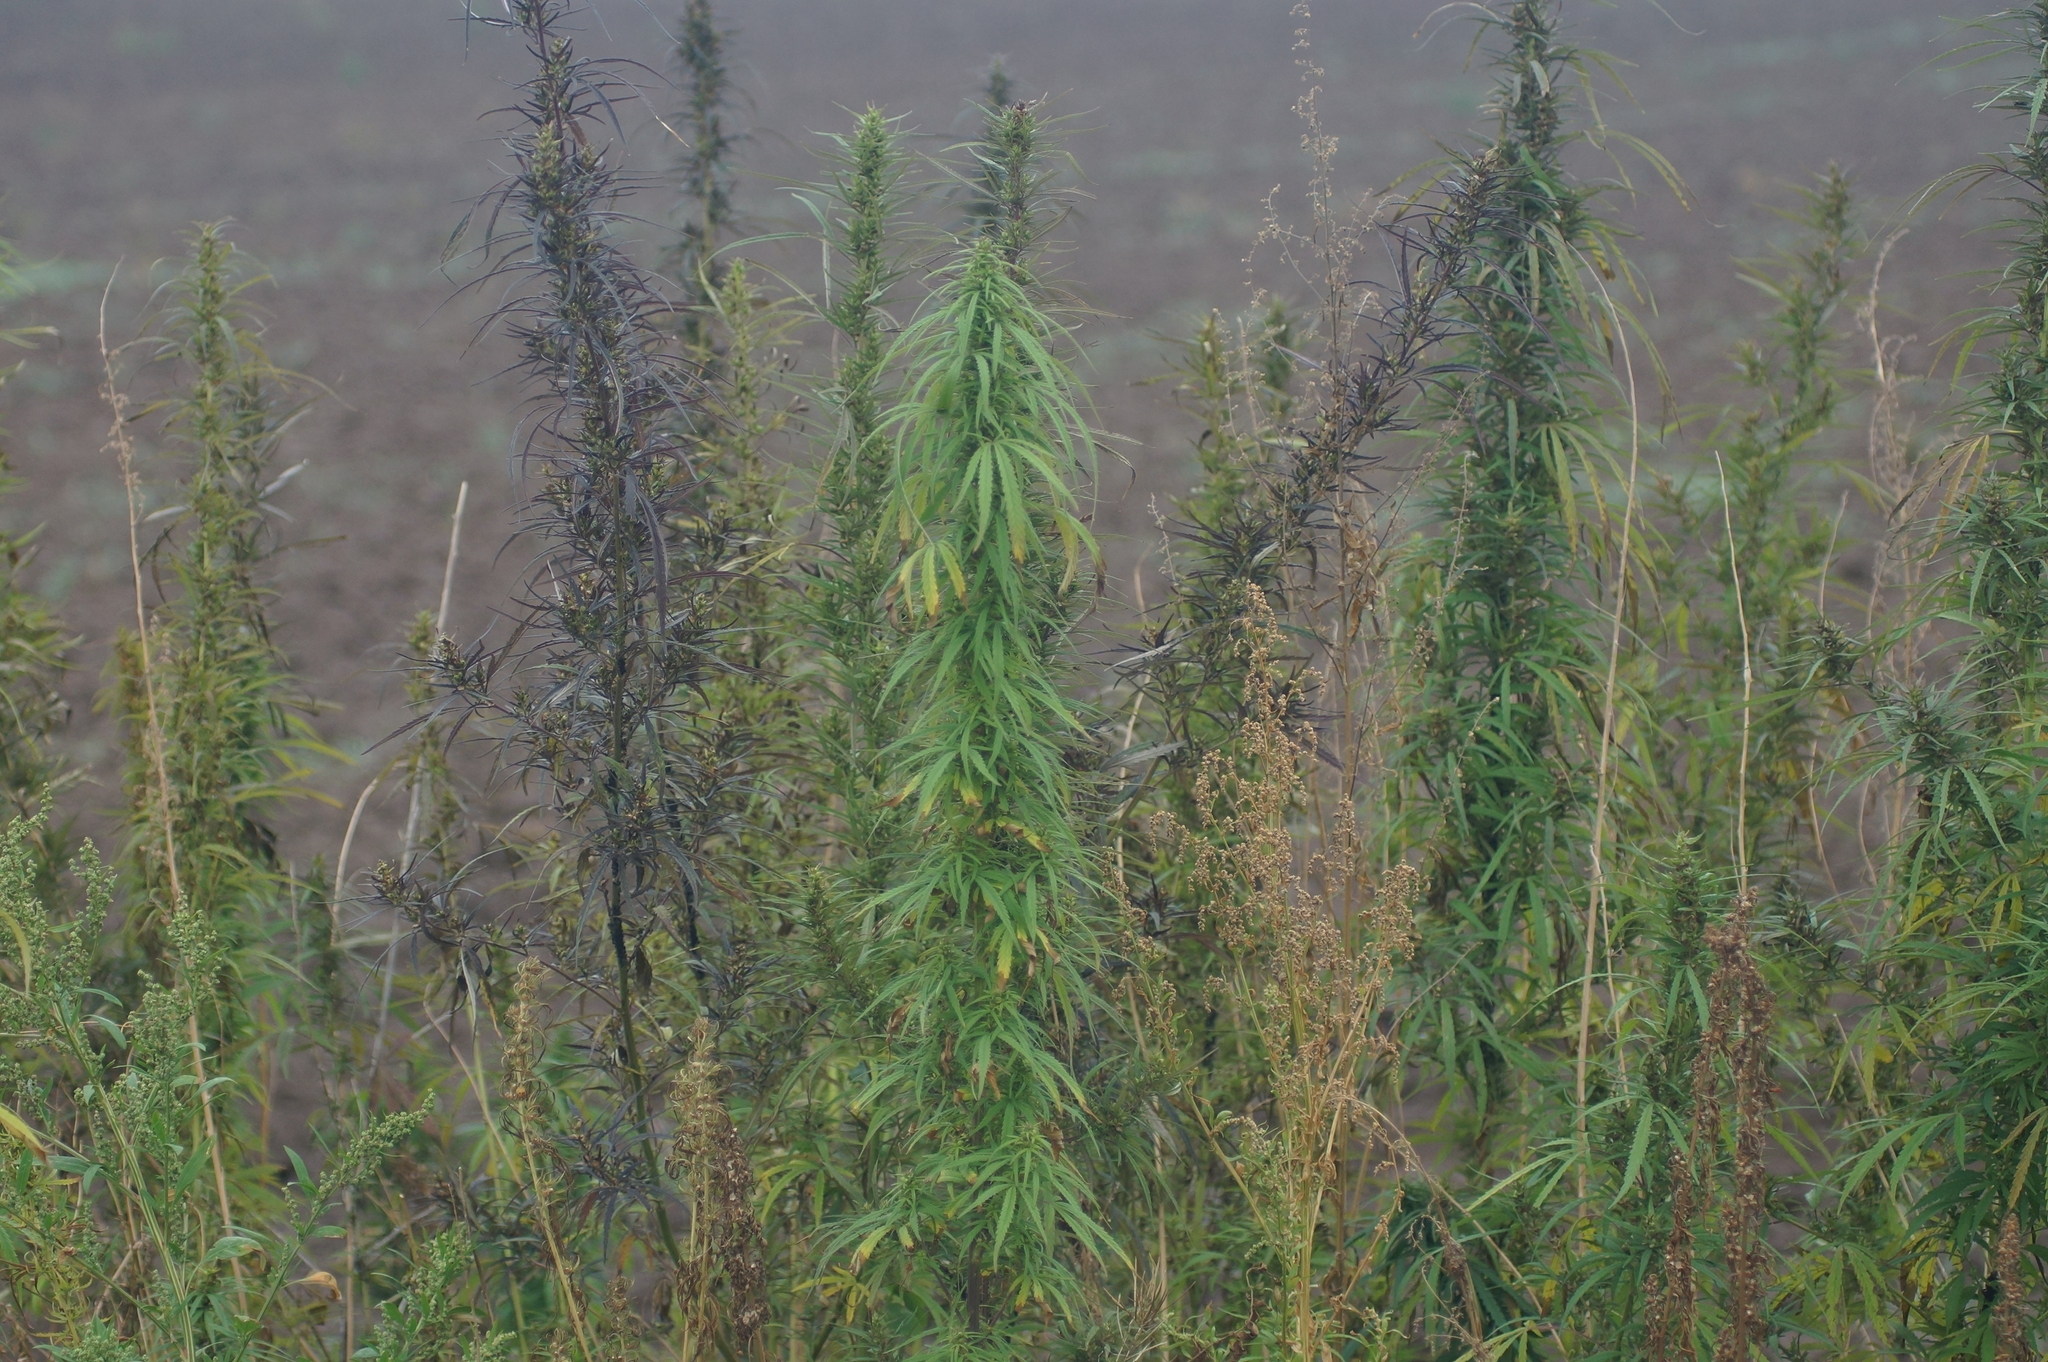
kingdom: Plantae
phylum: Tracheophyta
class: Magnoliopsida
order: Rosales
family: Cannabaceae
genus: Cannabis
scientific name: Cannabis sativa
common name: Hemp
